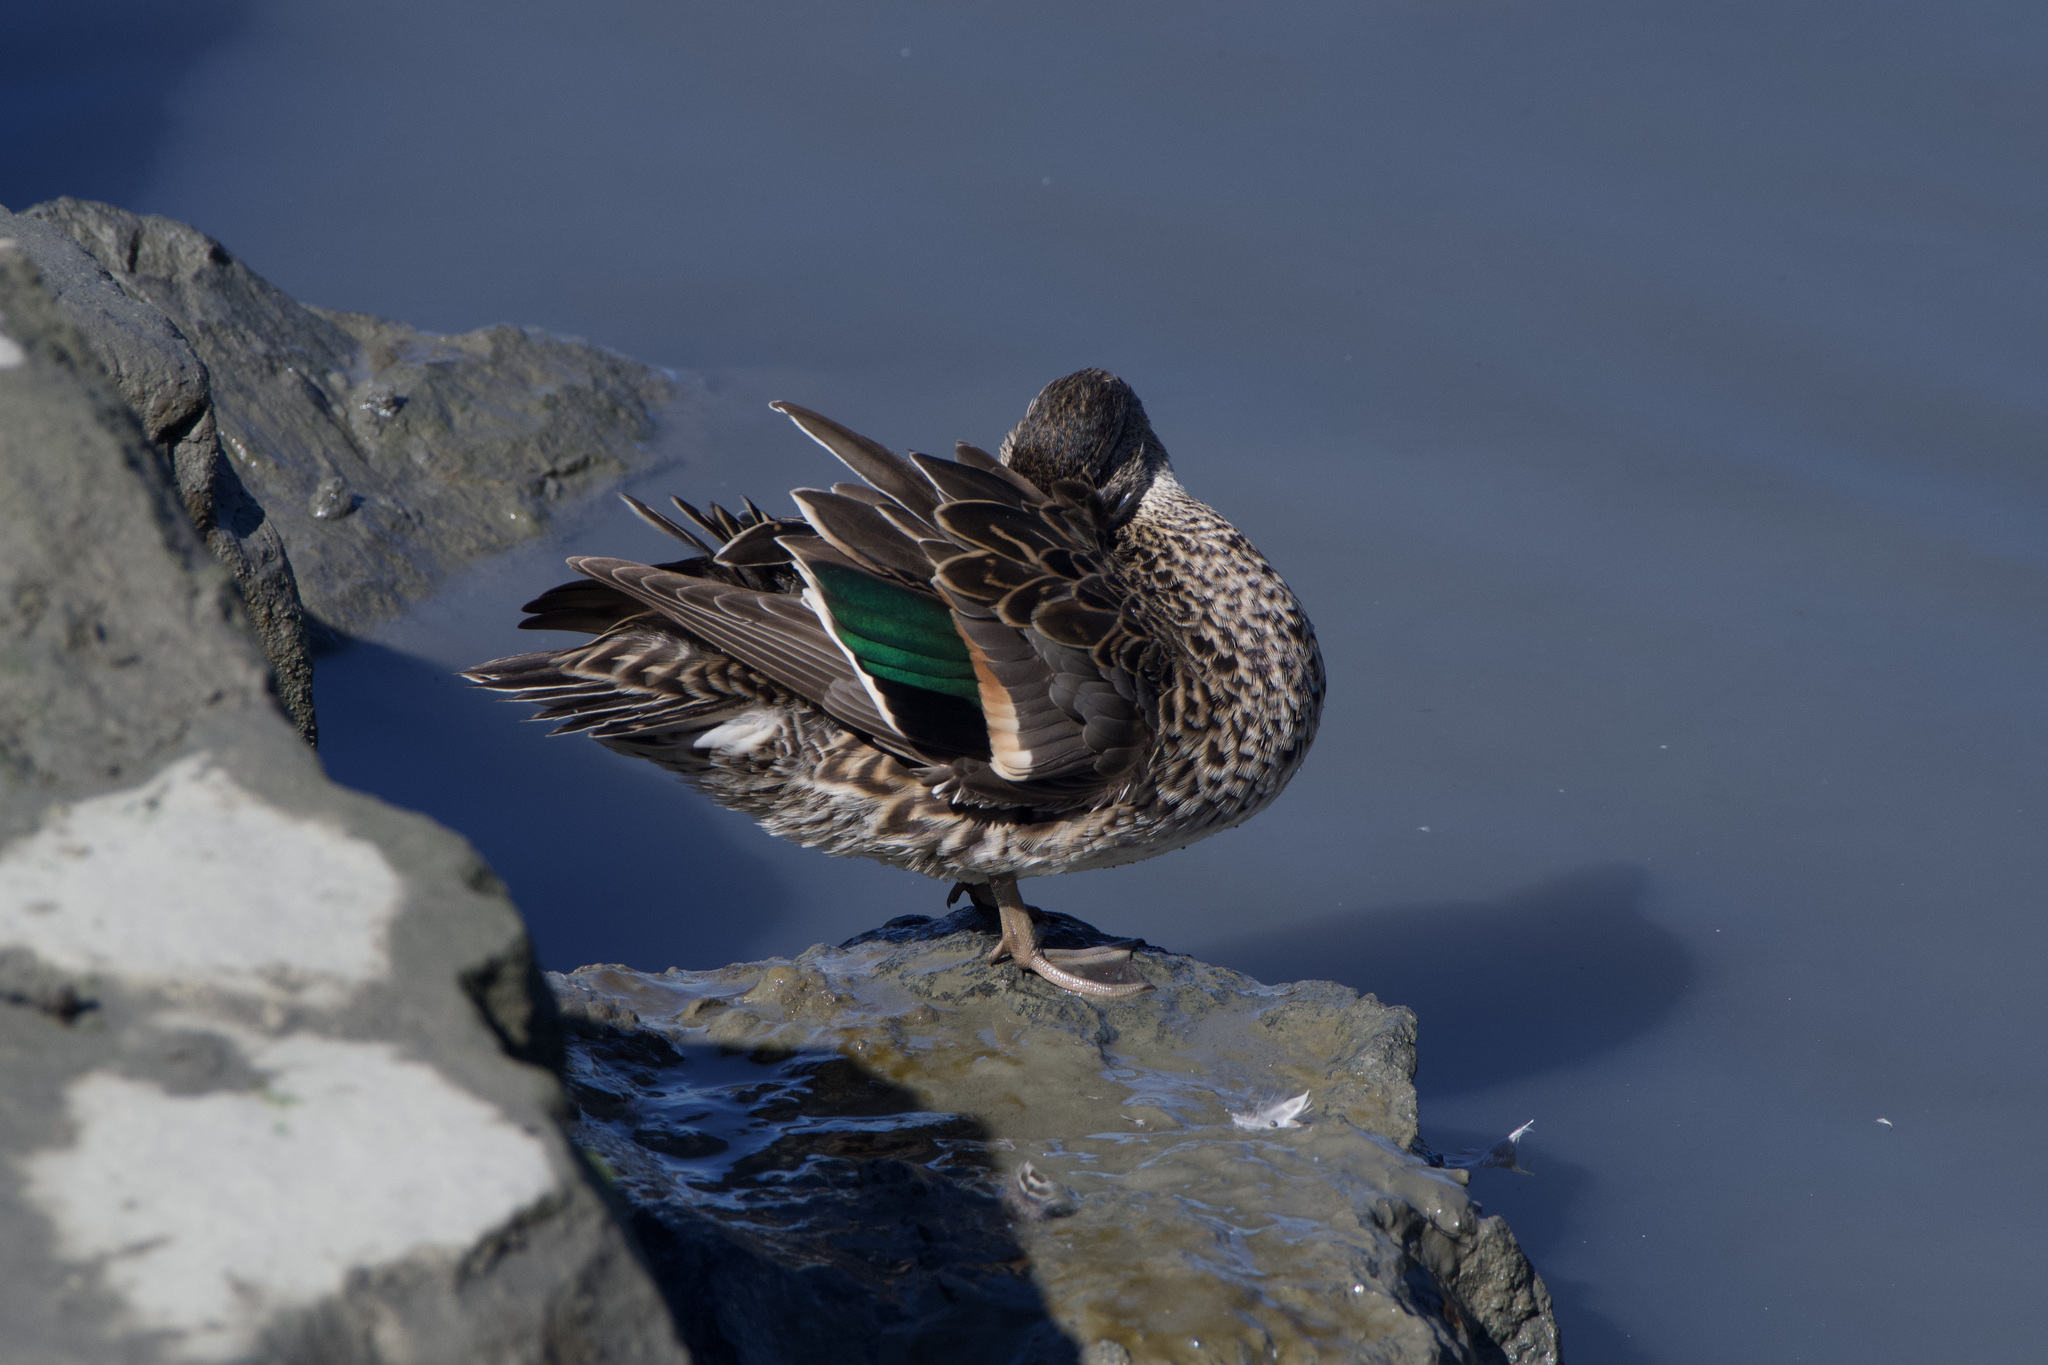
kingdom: Animalia
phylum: Chordata
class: Aves
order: Anseriformes
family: Anatidae
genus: Anas
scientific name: Anas crecca
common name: Eurasian teal
